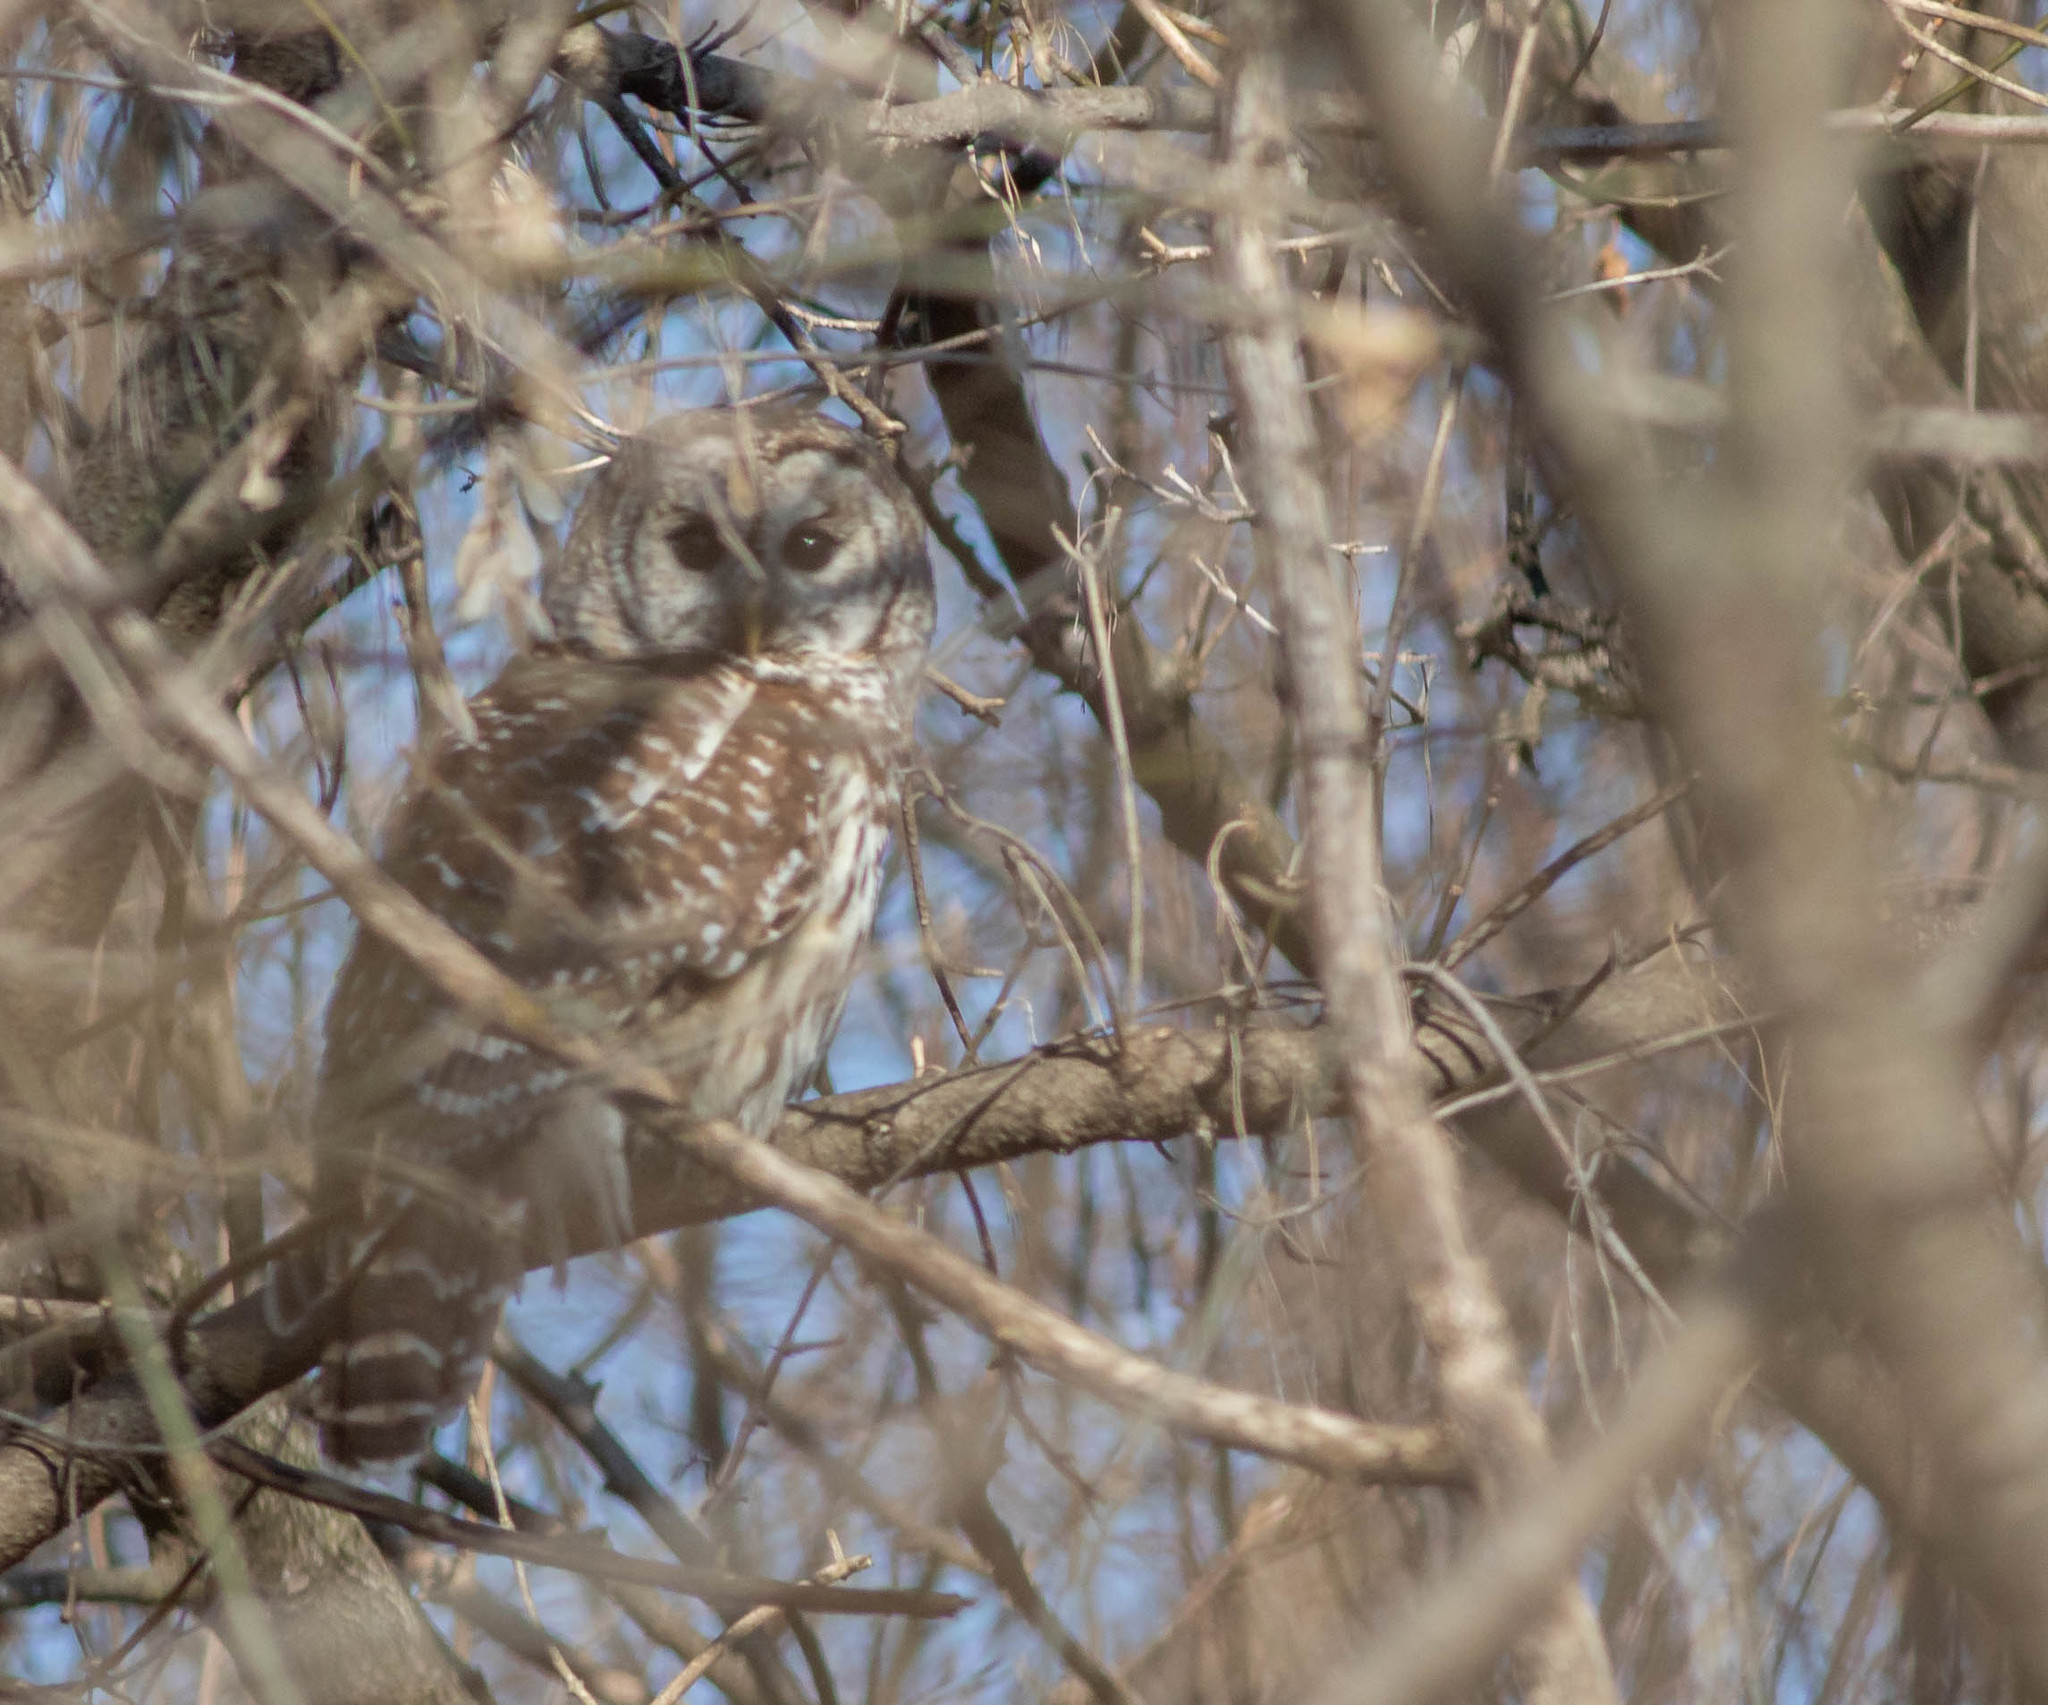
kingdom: Animalia
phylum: Chordata
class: Aves
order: Strigiformes
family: Strigidae
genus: Strix
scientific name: Strix varia
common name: Barred owl
